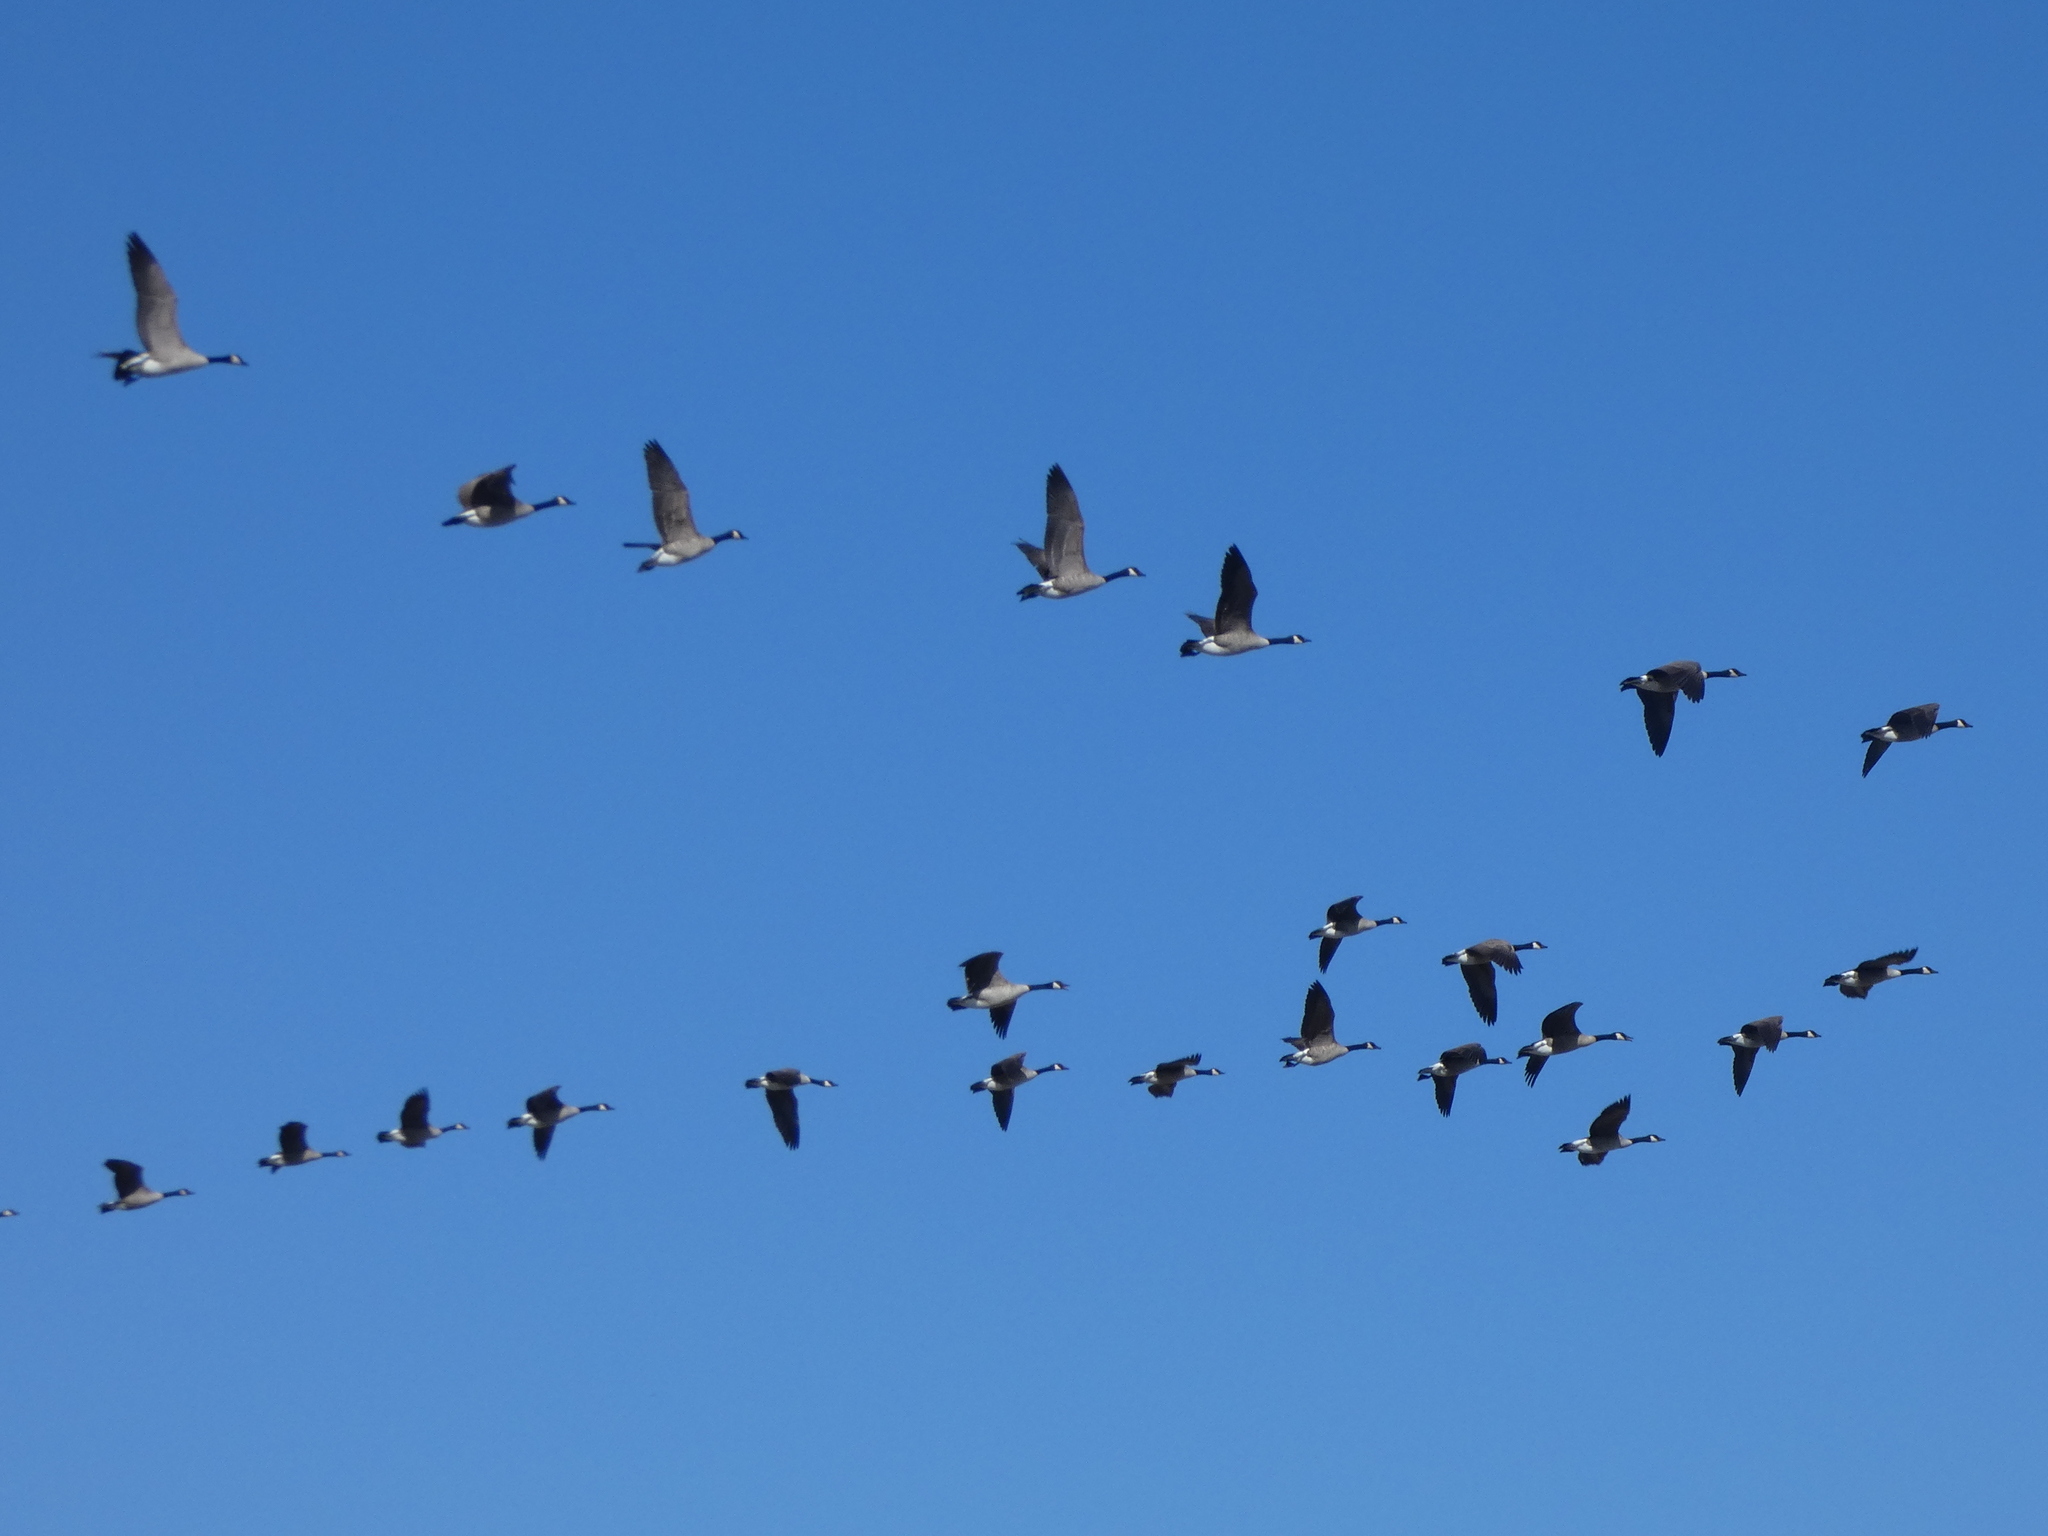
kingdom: Animalia
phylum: Chordata
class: Aves
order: Anseriformes
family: Anatidae
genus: Branta
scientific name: Branta canadensis
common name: Canada goose
